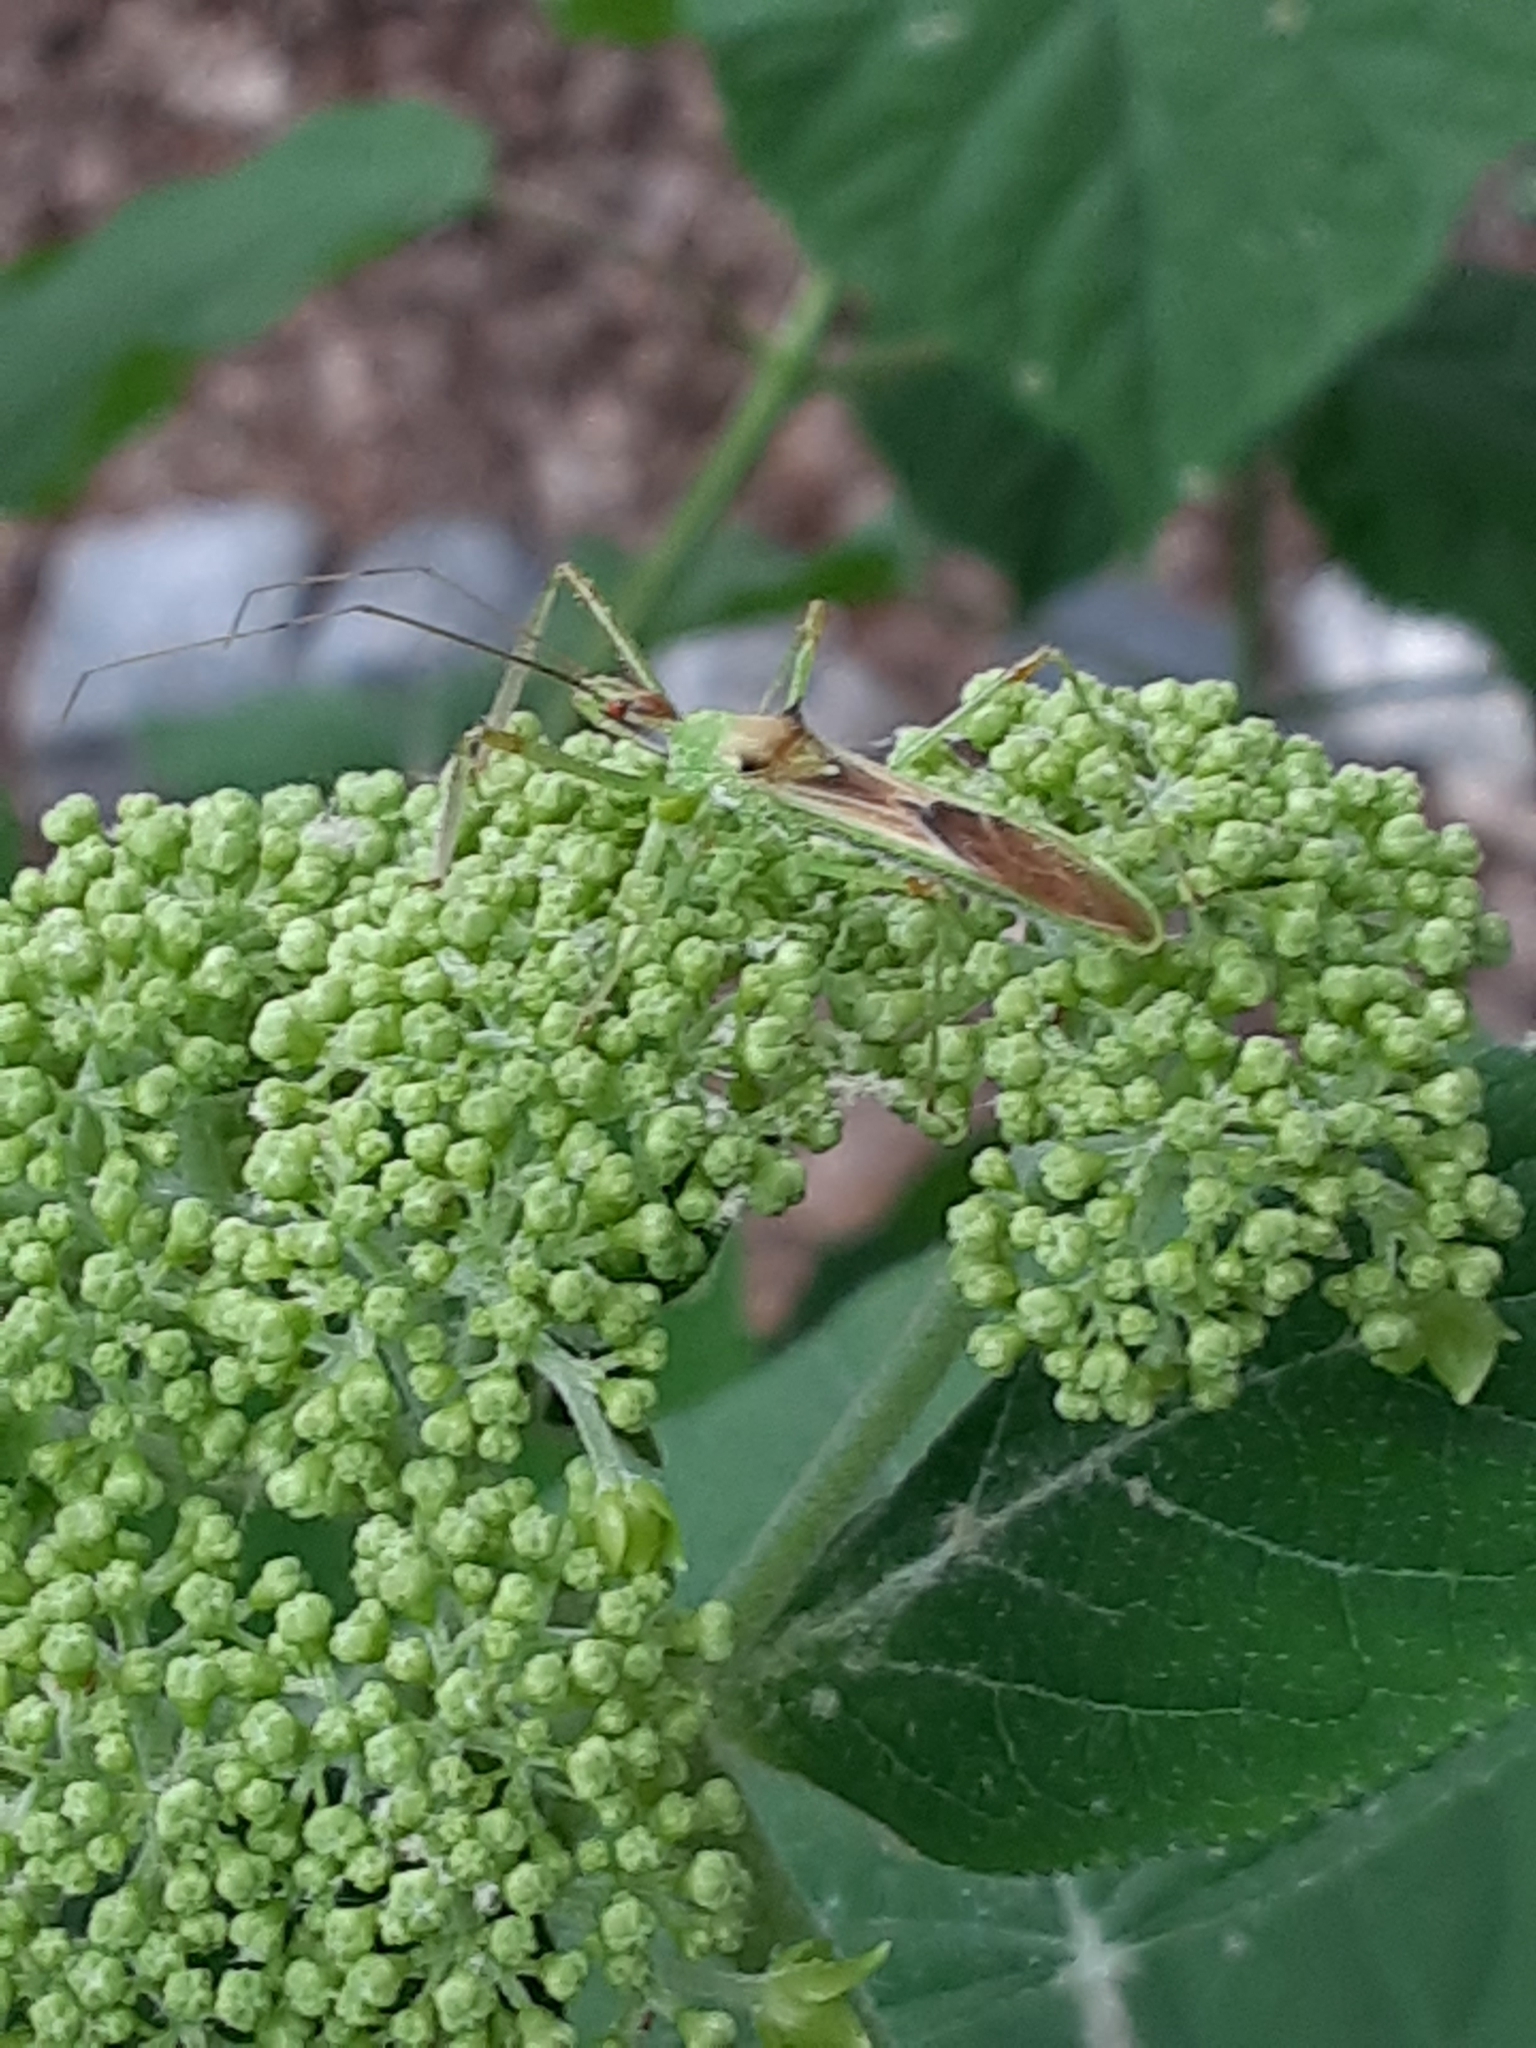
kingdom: Animalia
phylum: Arthropoda
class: Insecta
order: Hemiptera
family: Reduviidae
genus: Zelus
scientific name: Zelus luridus
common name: Pale green assassin bug
